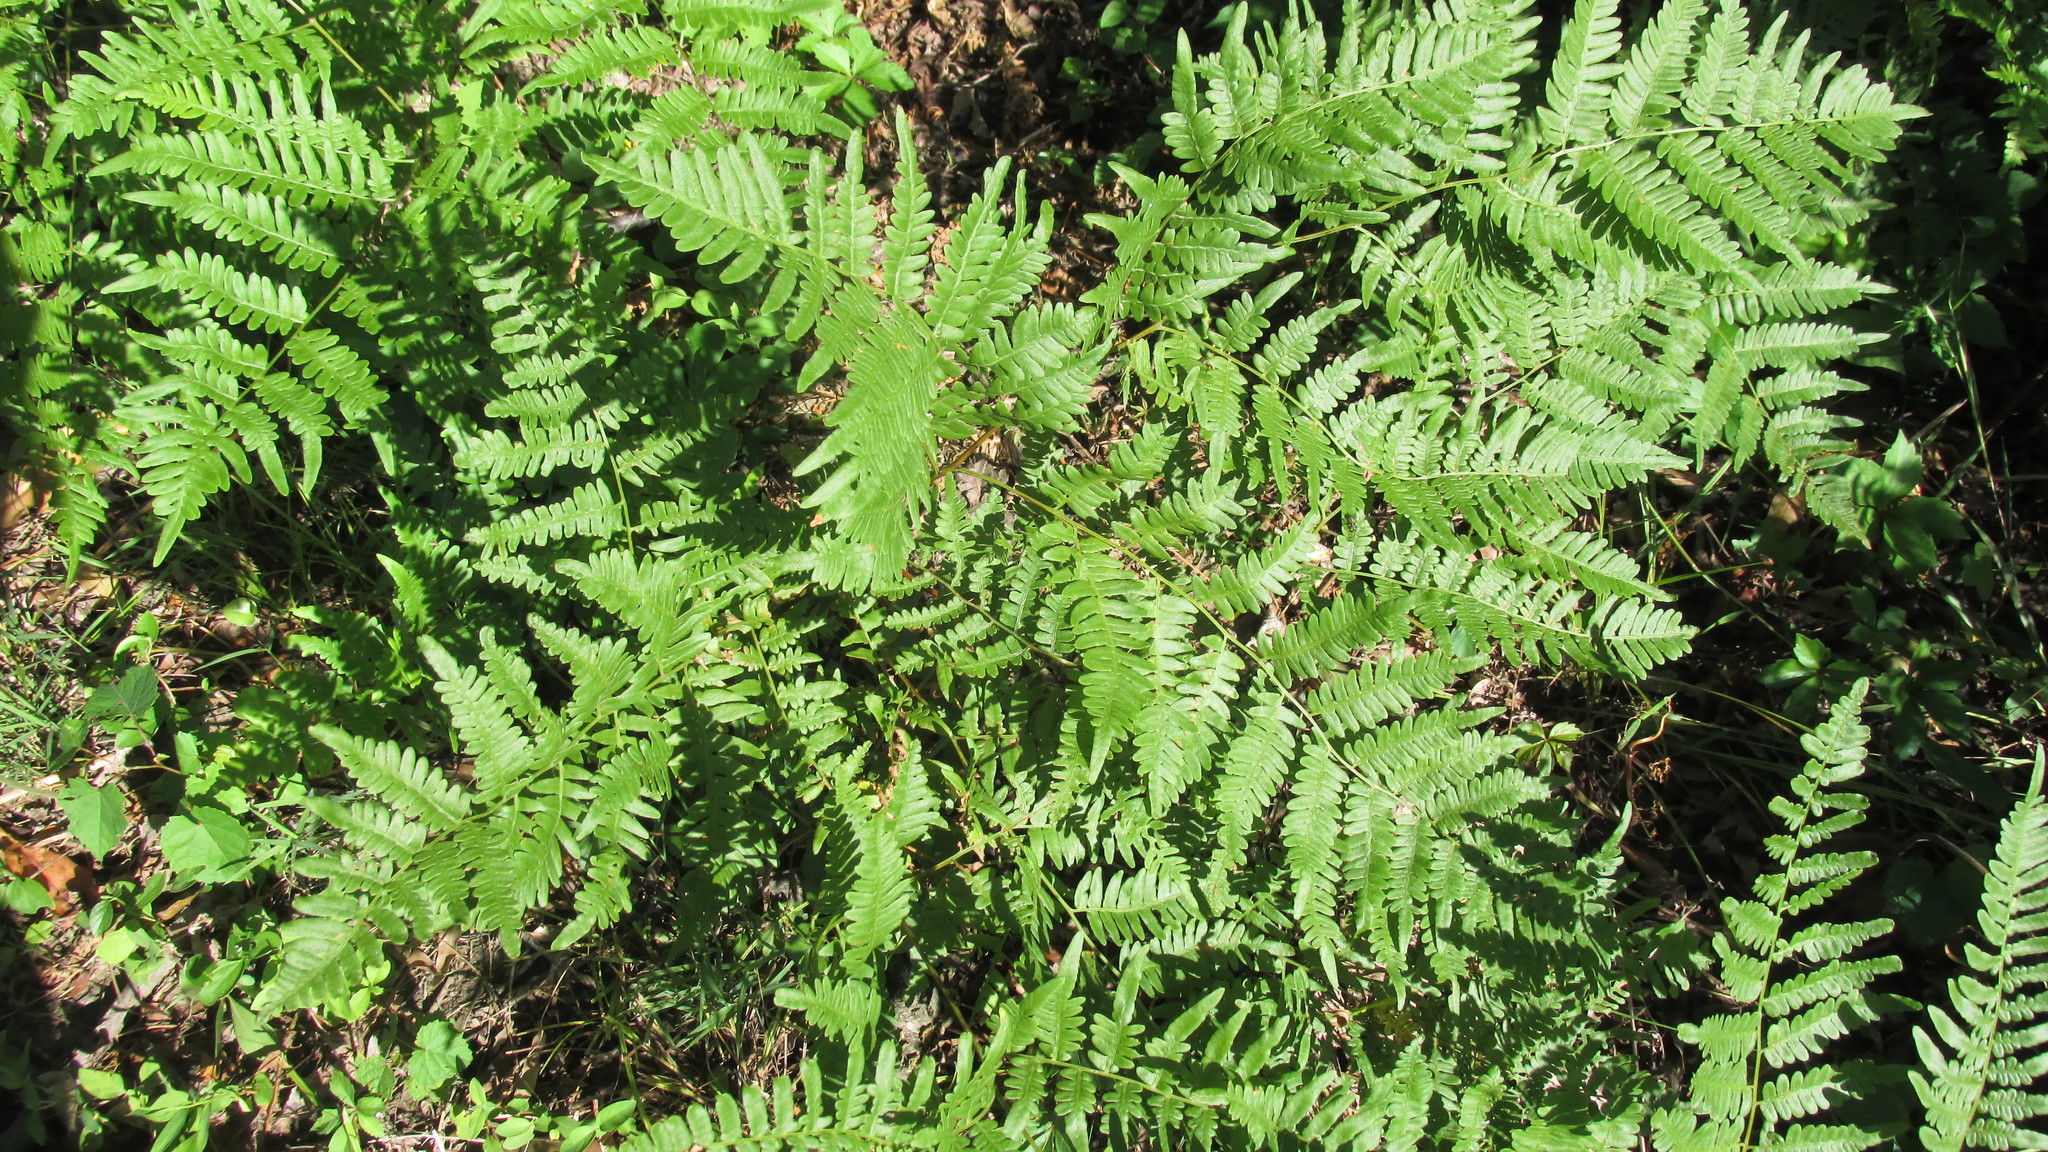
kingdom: Plantae
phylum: Tracheophyta
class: Polypodiopsida
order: Polypodiales
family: Dennstaedtiaceae
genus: Pteridium
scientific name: Pteridium aquilinum
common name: Bracken
